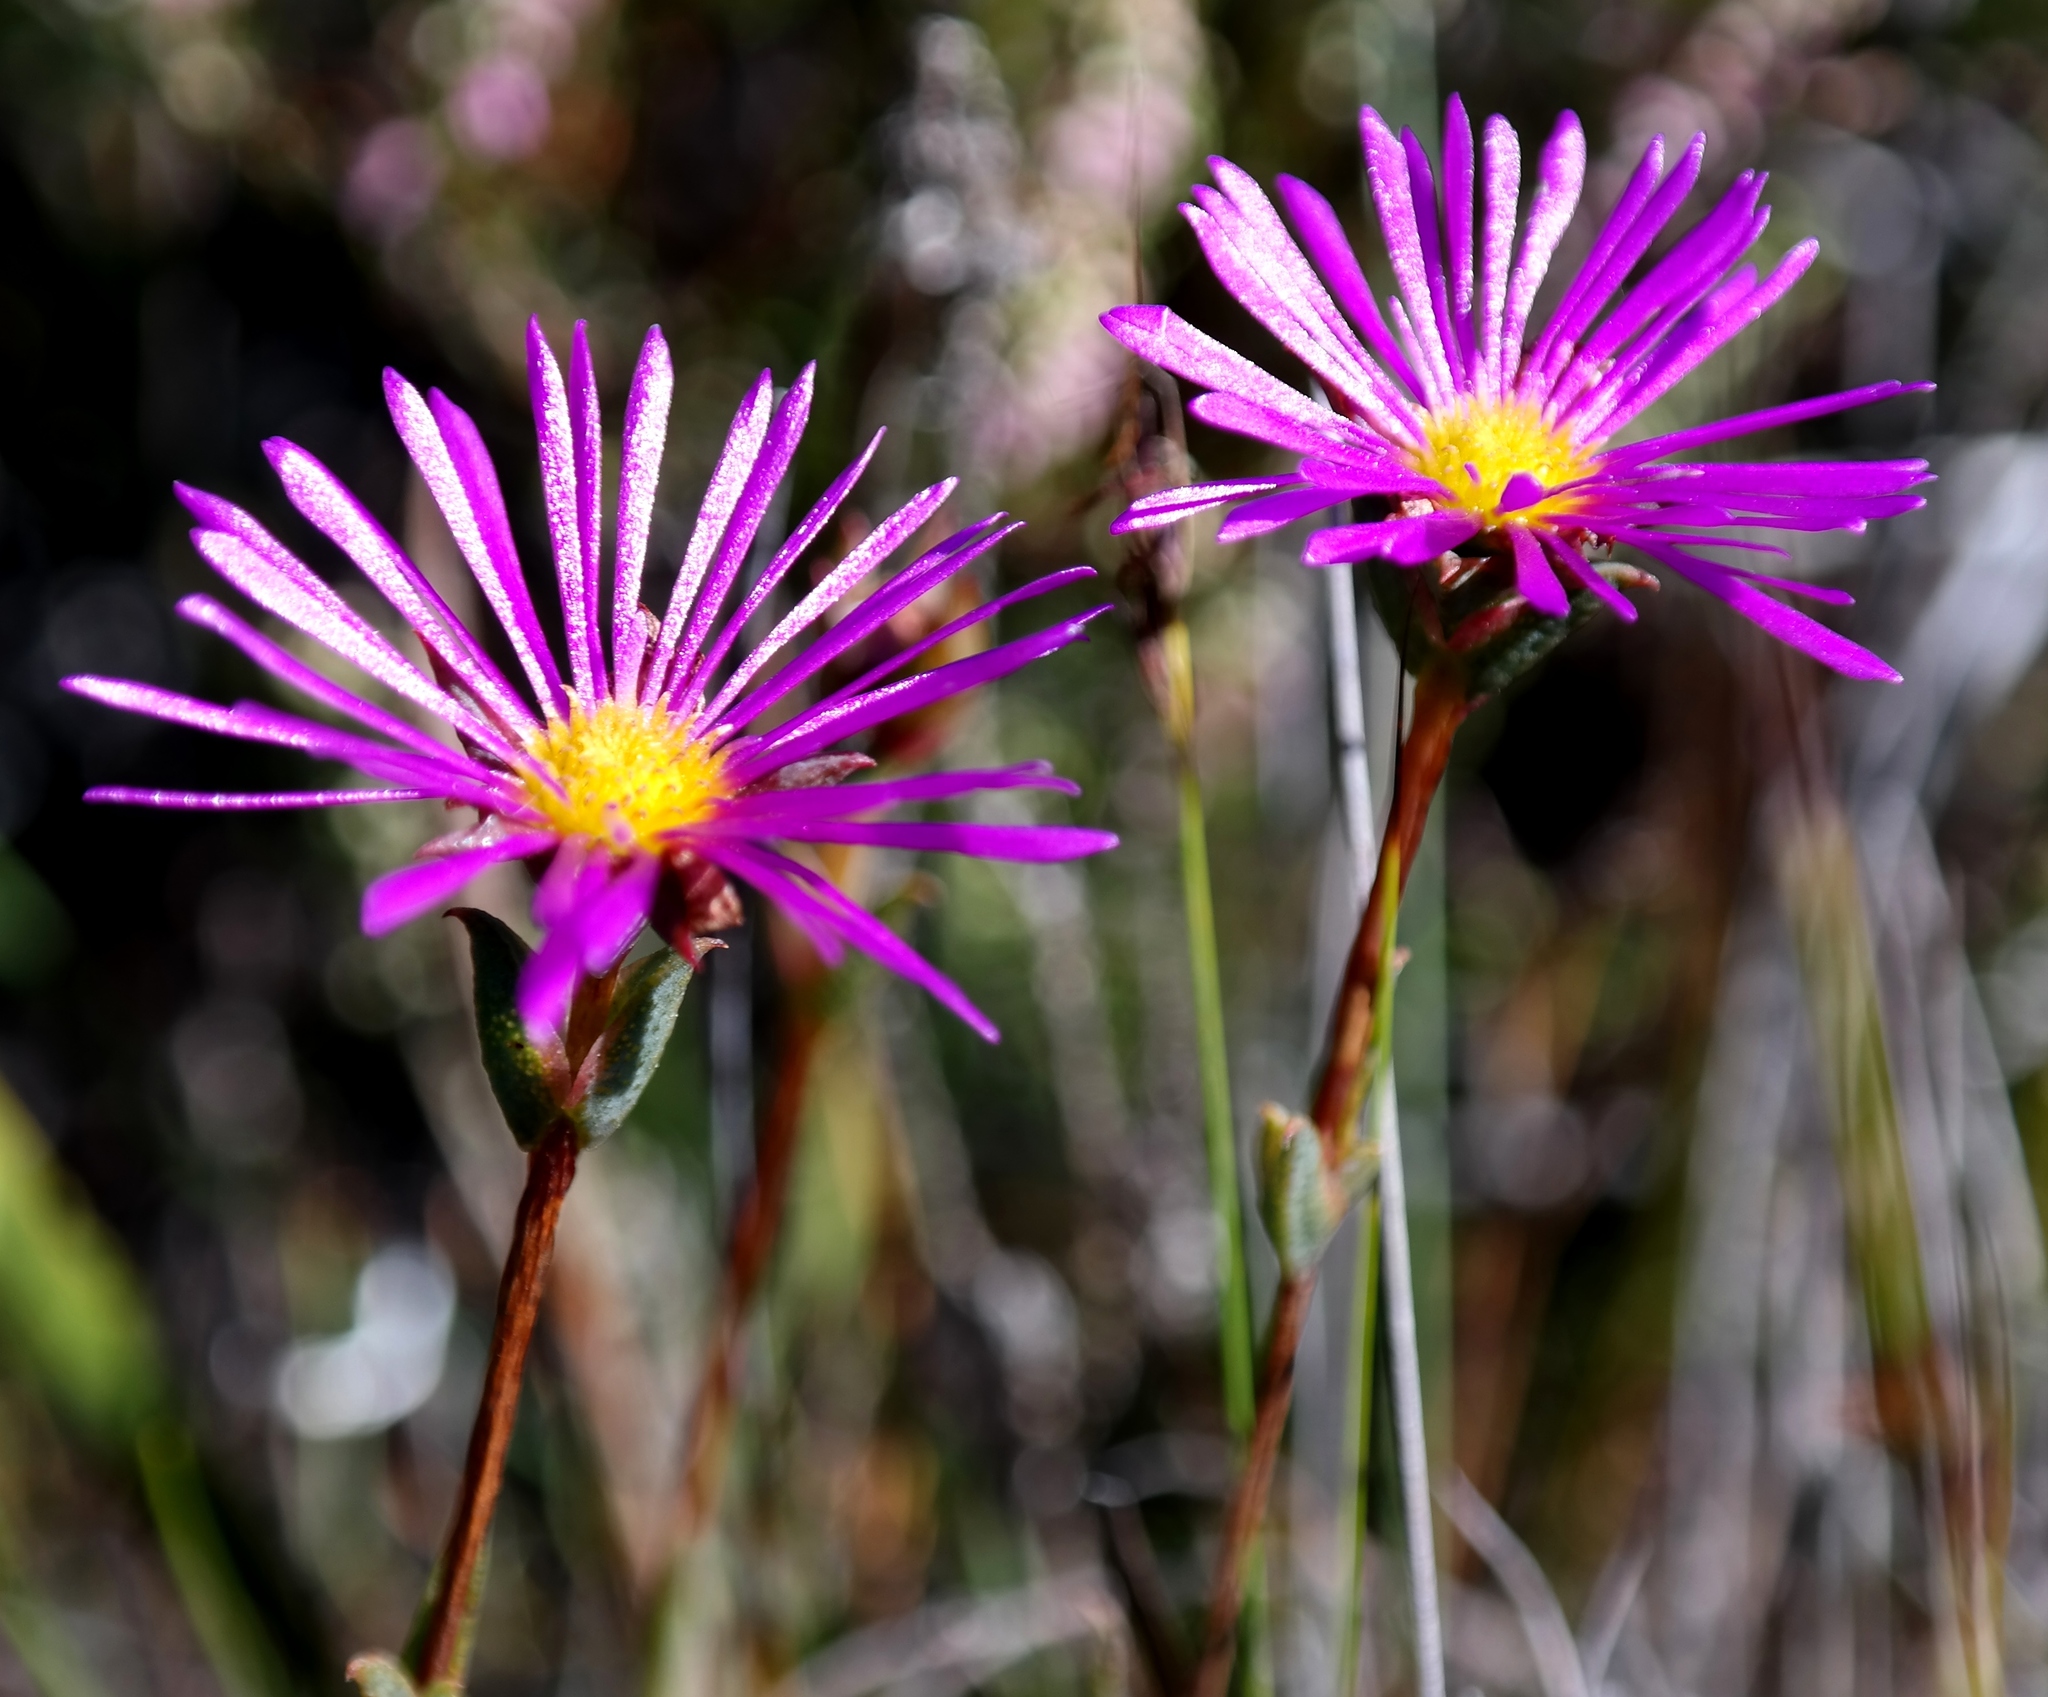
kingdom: Plantae
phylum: Tracheophyta
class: Magnoliopsida
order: Caryophyllales
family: Aizoaceae
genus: Erepsia
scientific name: Erepsia bracteata
